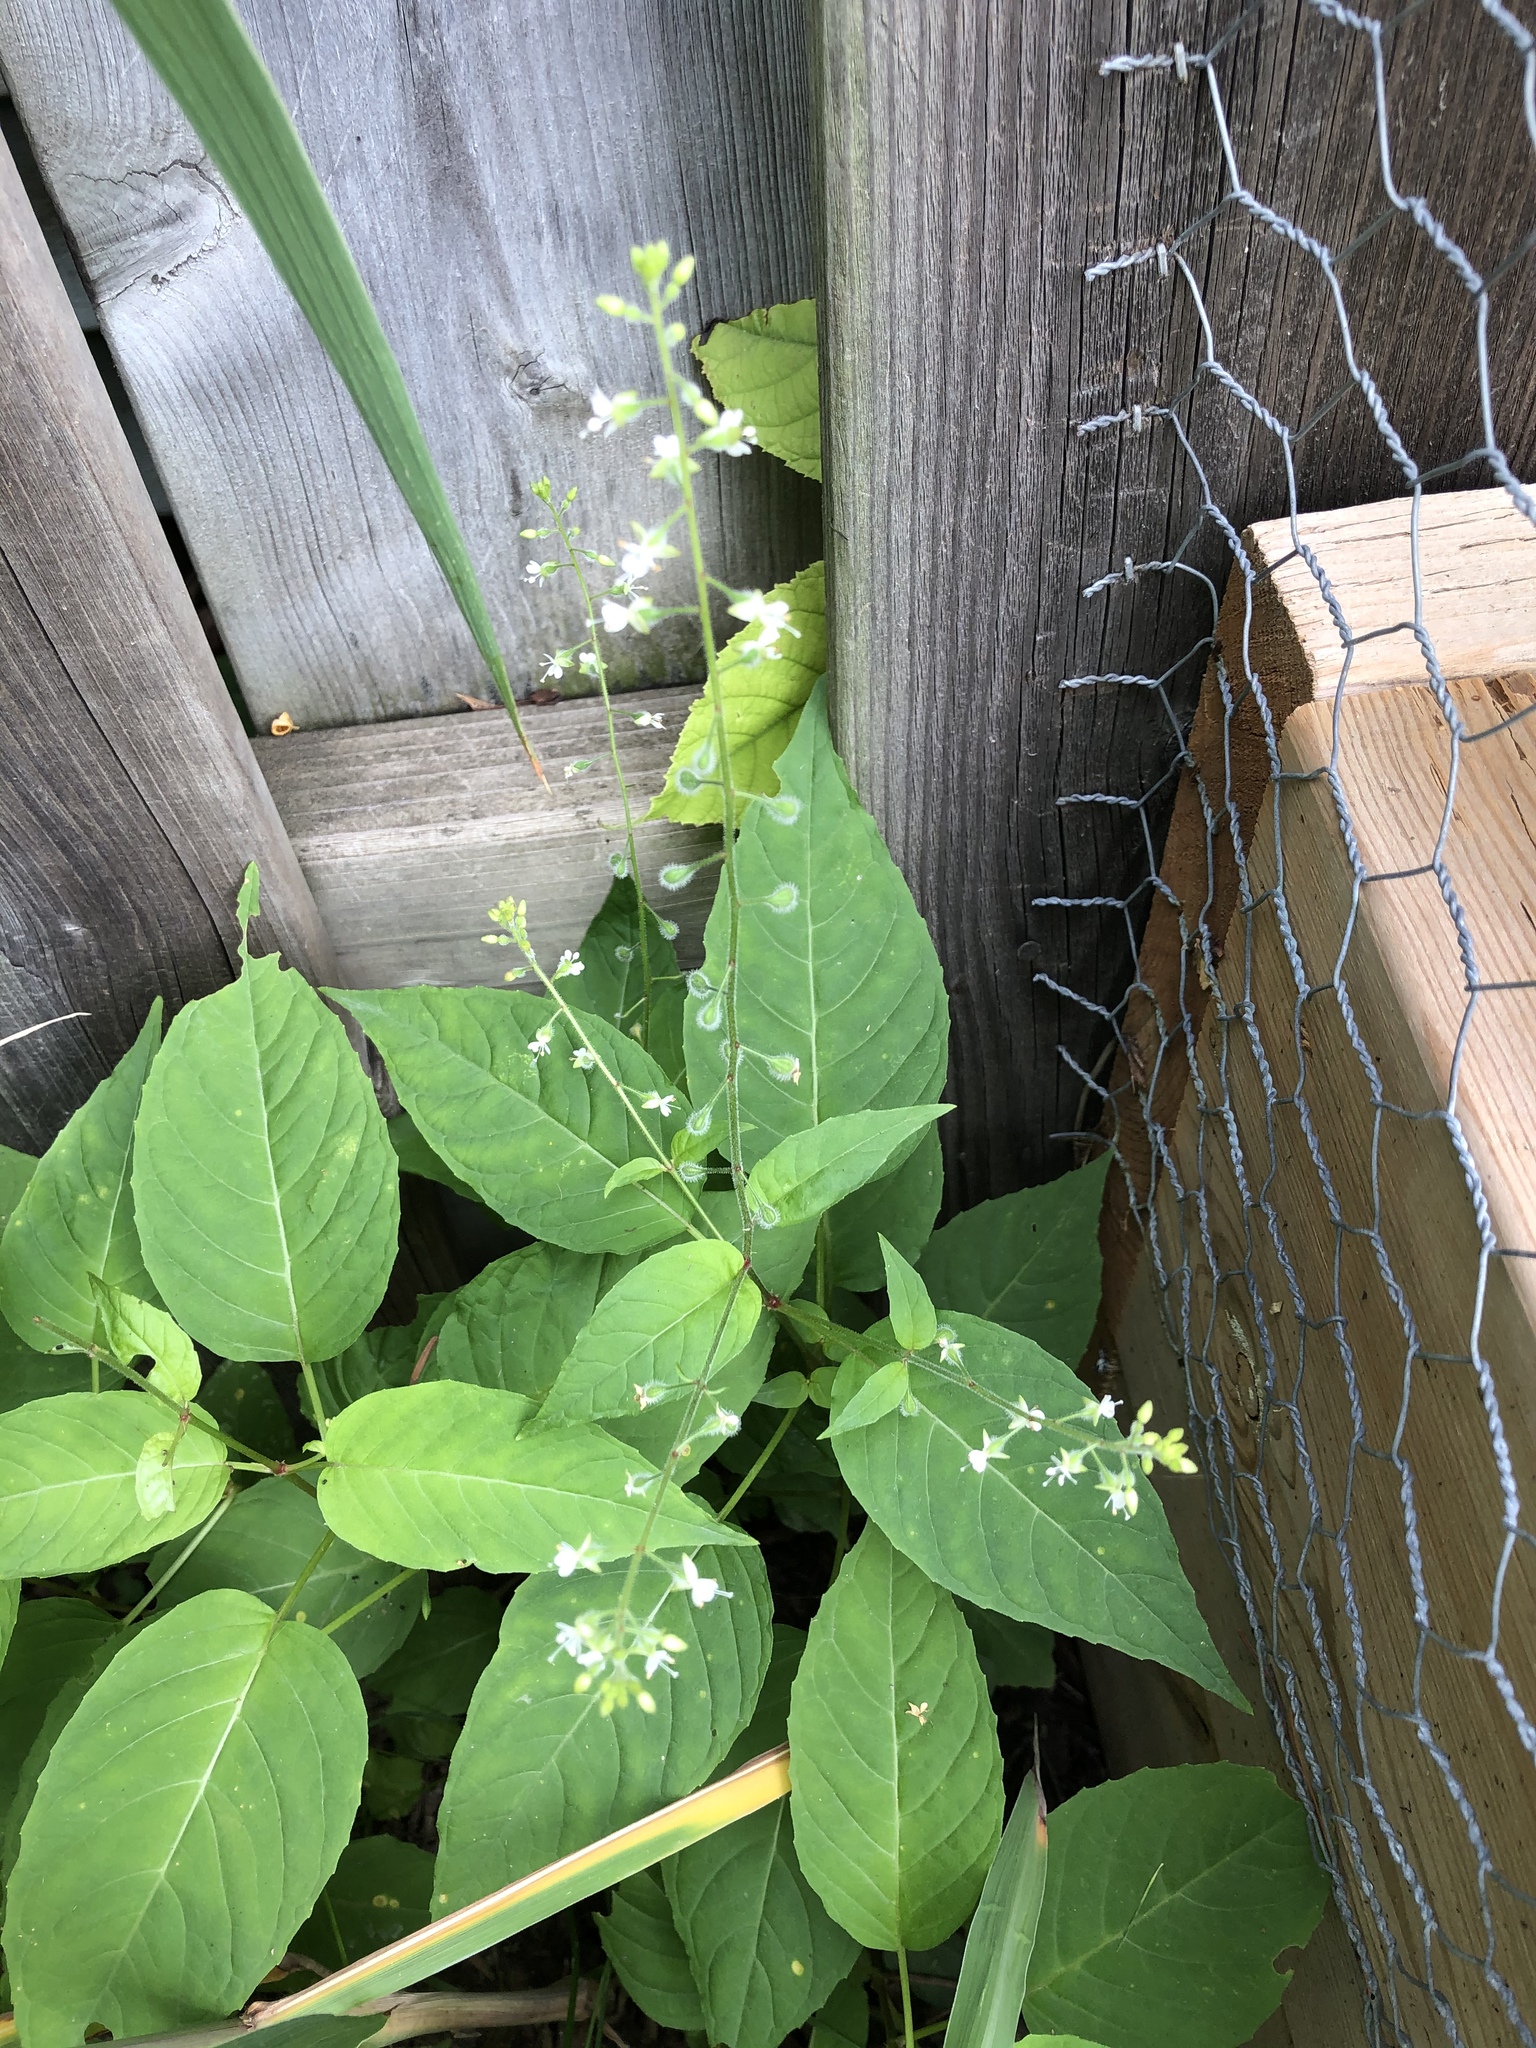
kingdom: Plantae
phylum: Tracheophyta
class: Magnoliopsida
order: Myrtales
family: Onagraceae
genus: Circaea
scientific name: Circaea canadensis
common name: Broad-leaved enchanter's nightshade
